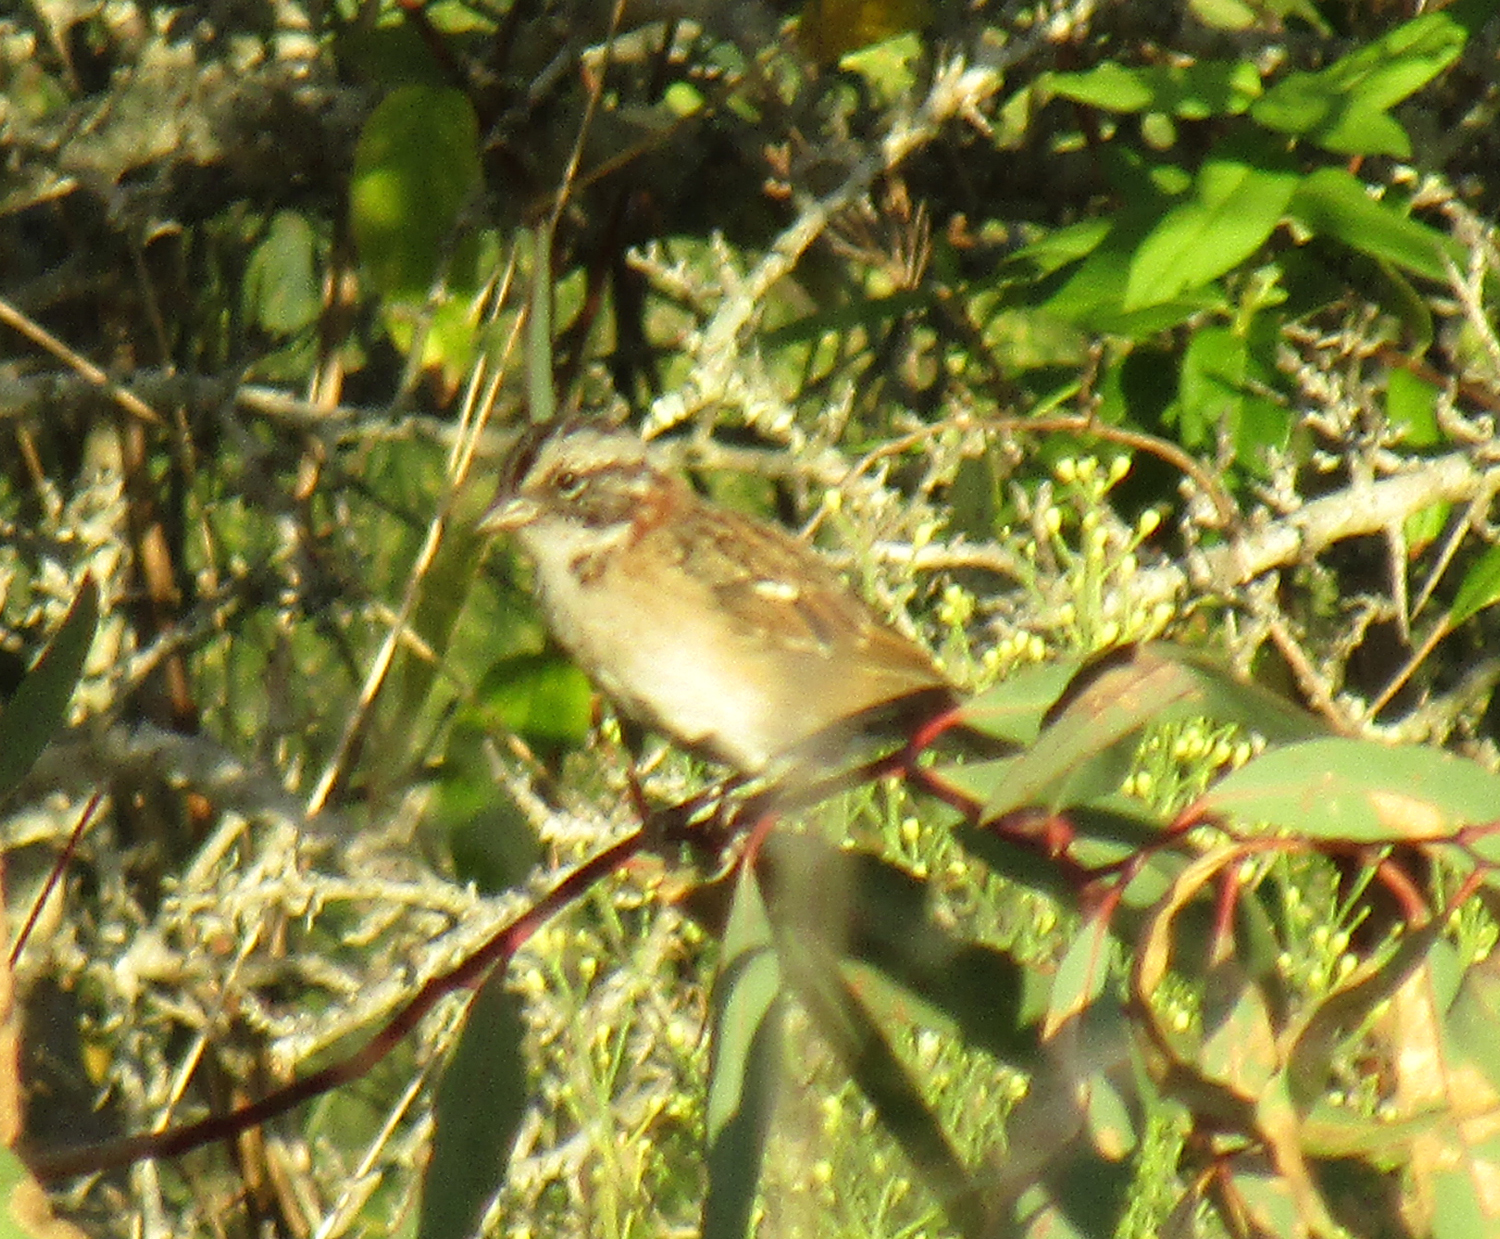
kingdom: Animalia
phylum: Chordata
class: Aves
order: Passeriformes
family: Passerellidae
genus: Zonotrichia
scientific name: Zonotrichia capensis
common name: Rufous-collared sparrow
